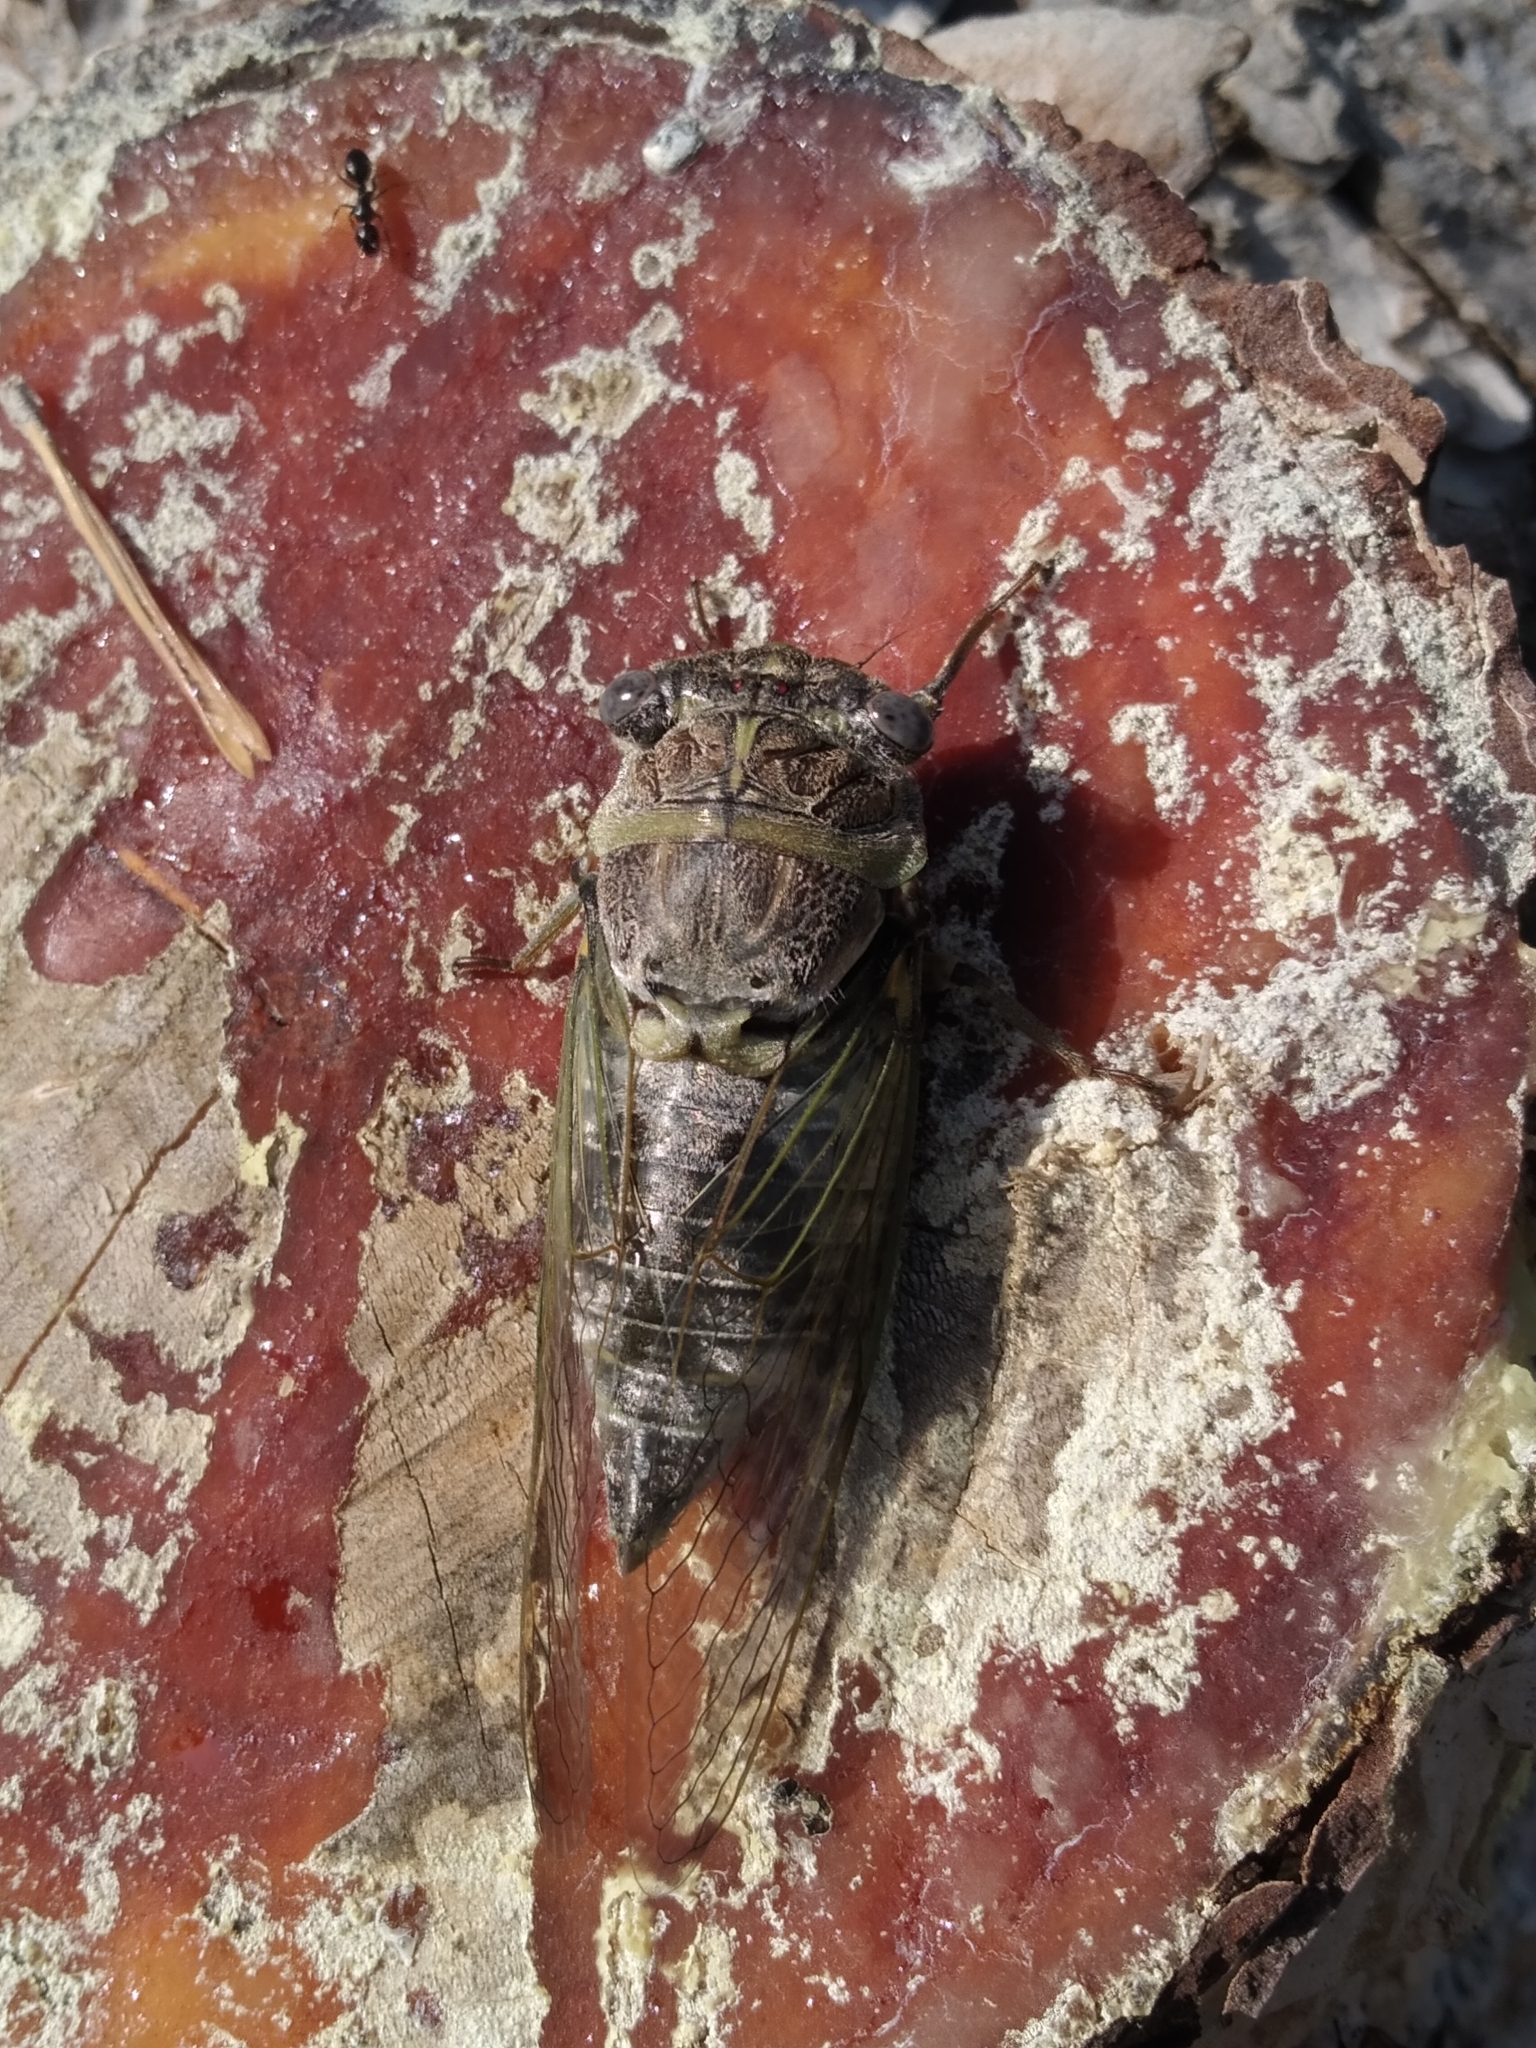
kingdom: Animalia
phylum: Arthropoda
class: Insecta
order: Hemiptera
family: Cicadidae
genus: Lyristes
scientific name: Lyristes plebejus
